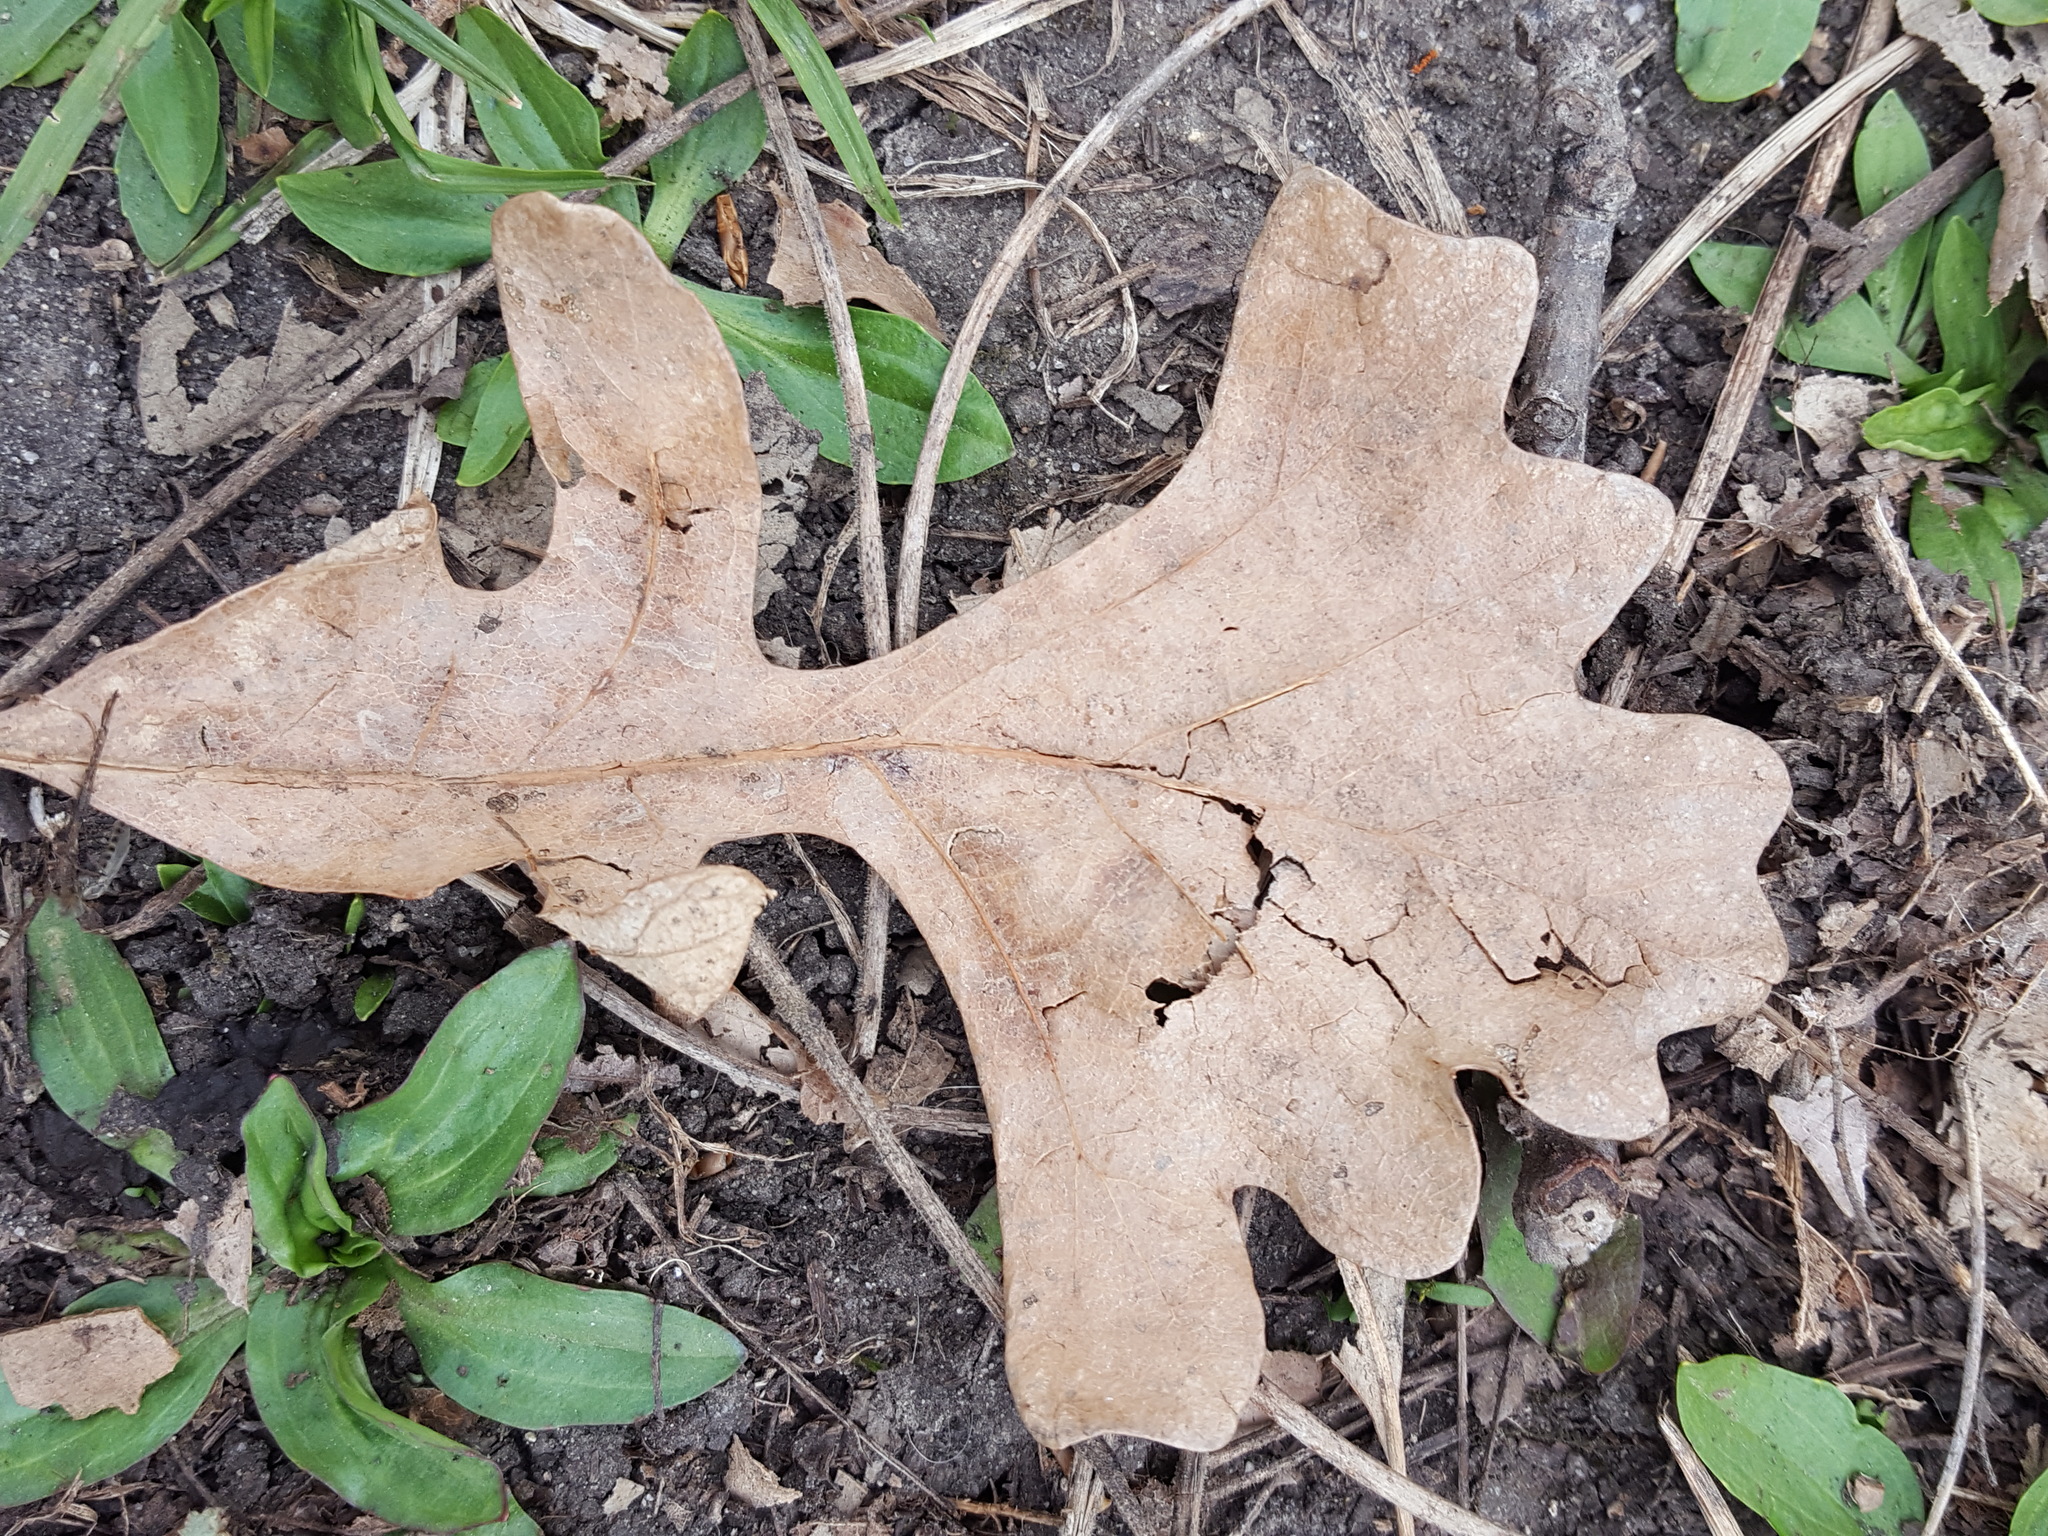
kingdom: Plantae
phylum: Tracheophyta
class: Magnoliopsida
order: Fagales
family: Fagaceae
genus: Quercus
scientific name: Quercus macrocarpa
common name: Bur oak
